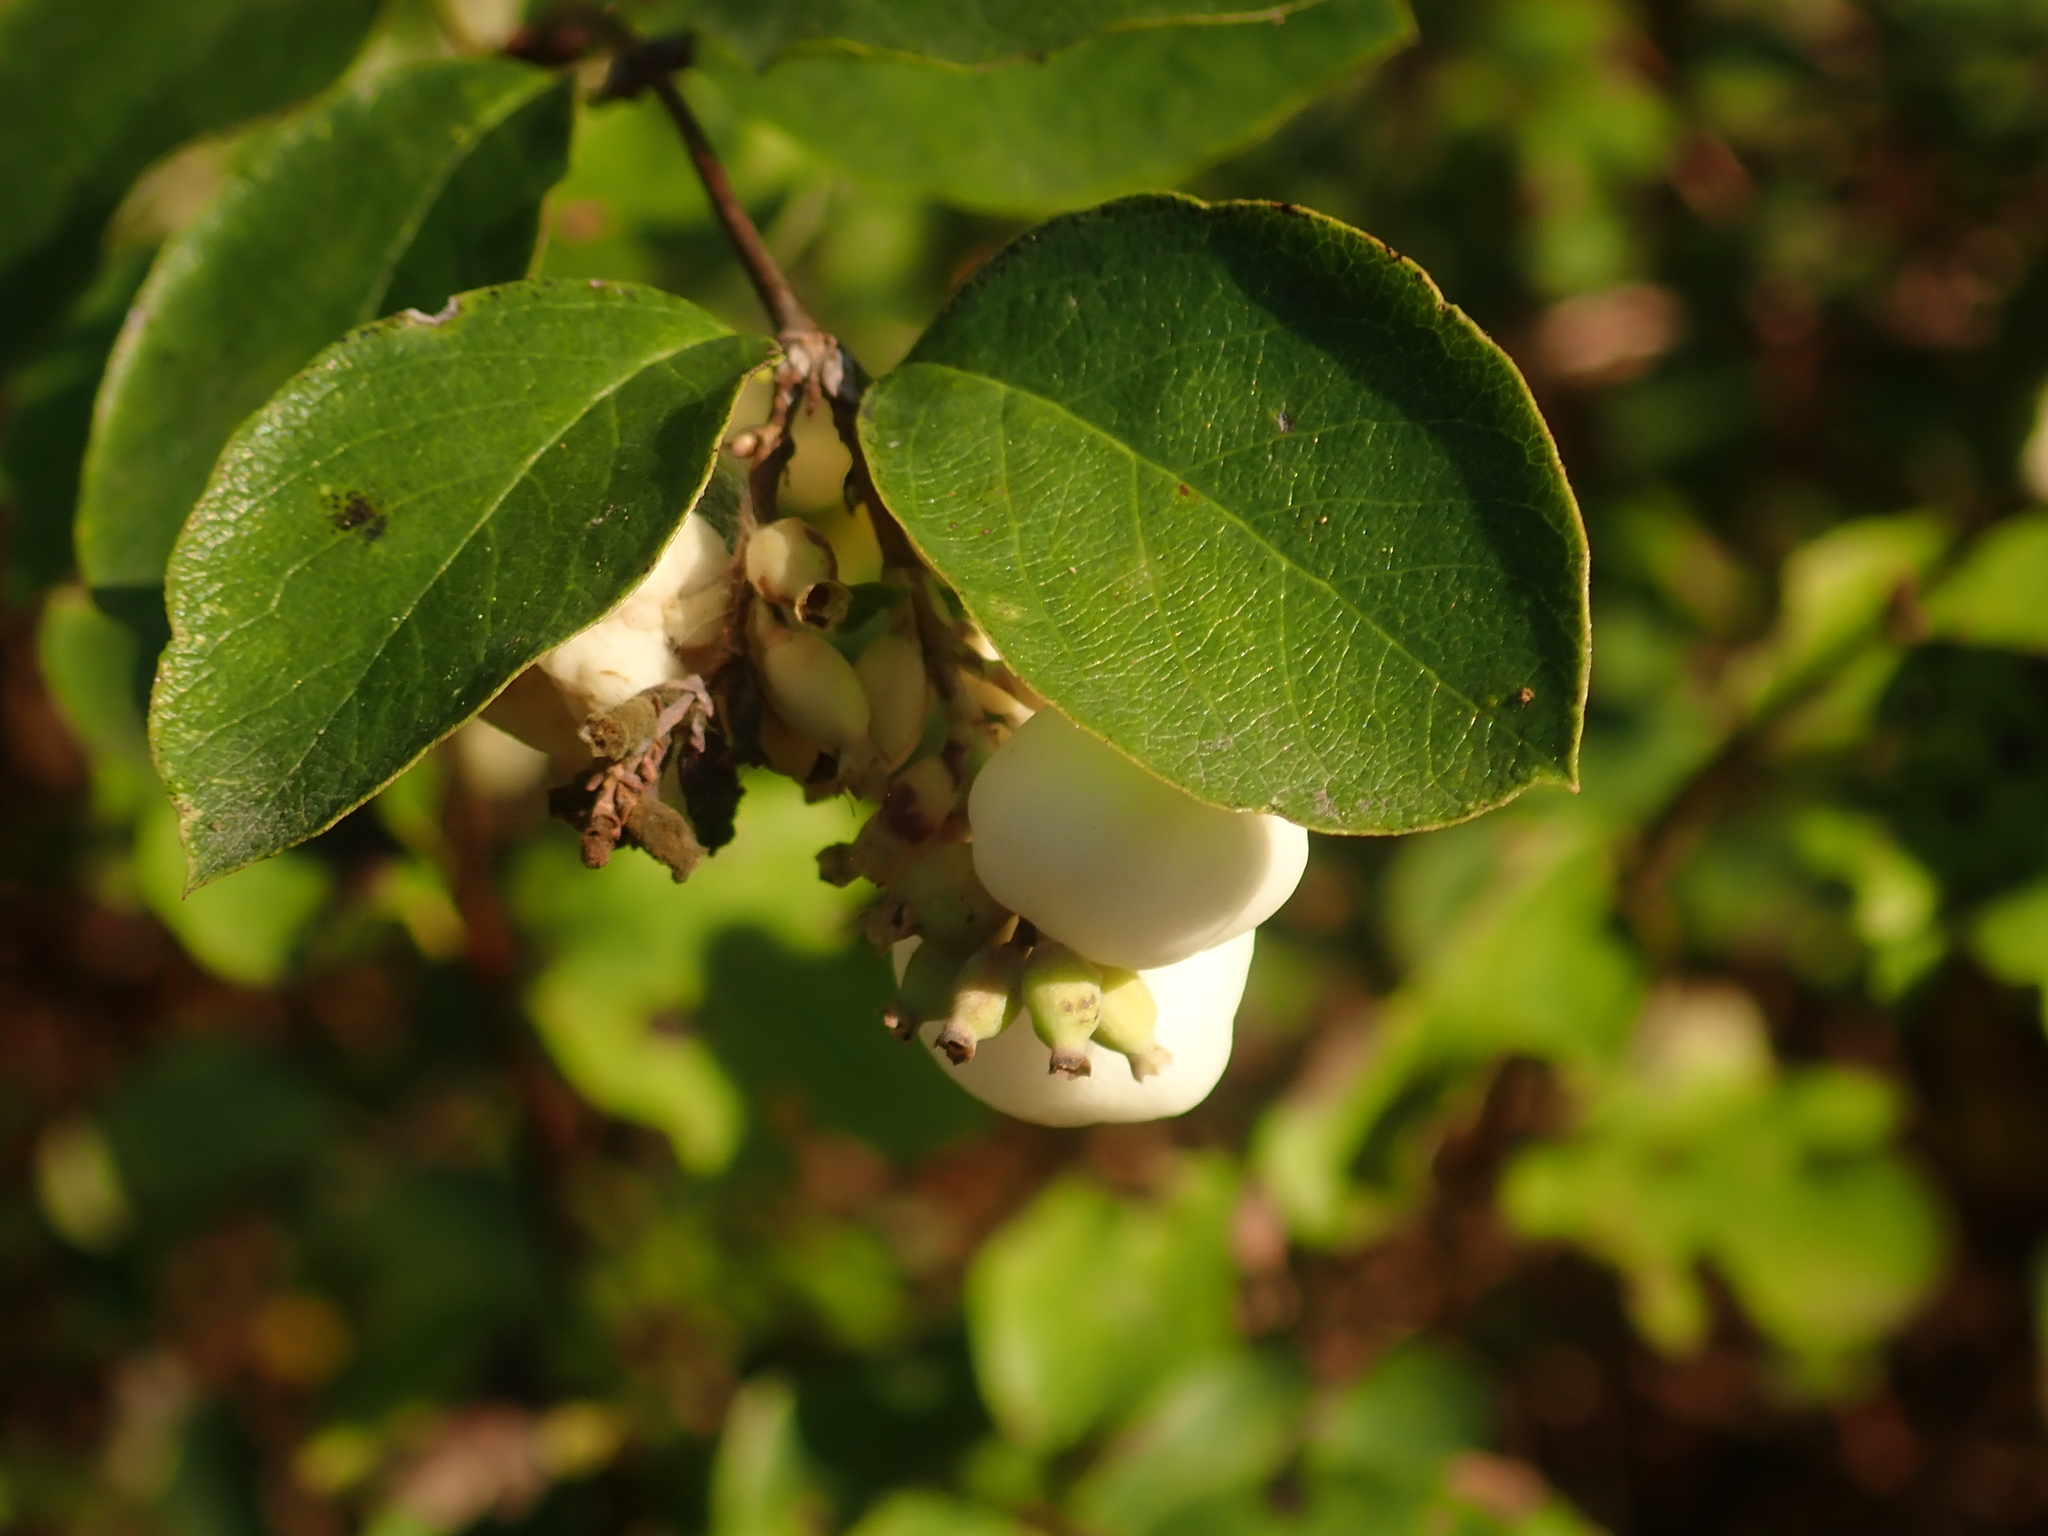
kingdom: Plantae
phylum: Tracheophyta
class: Magnoliopsida
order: Dipsacales
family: Caprifoliaceae
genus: Symphoricarpos
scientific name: Symphoricarpos albus
